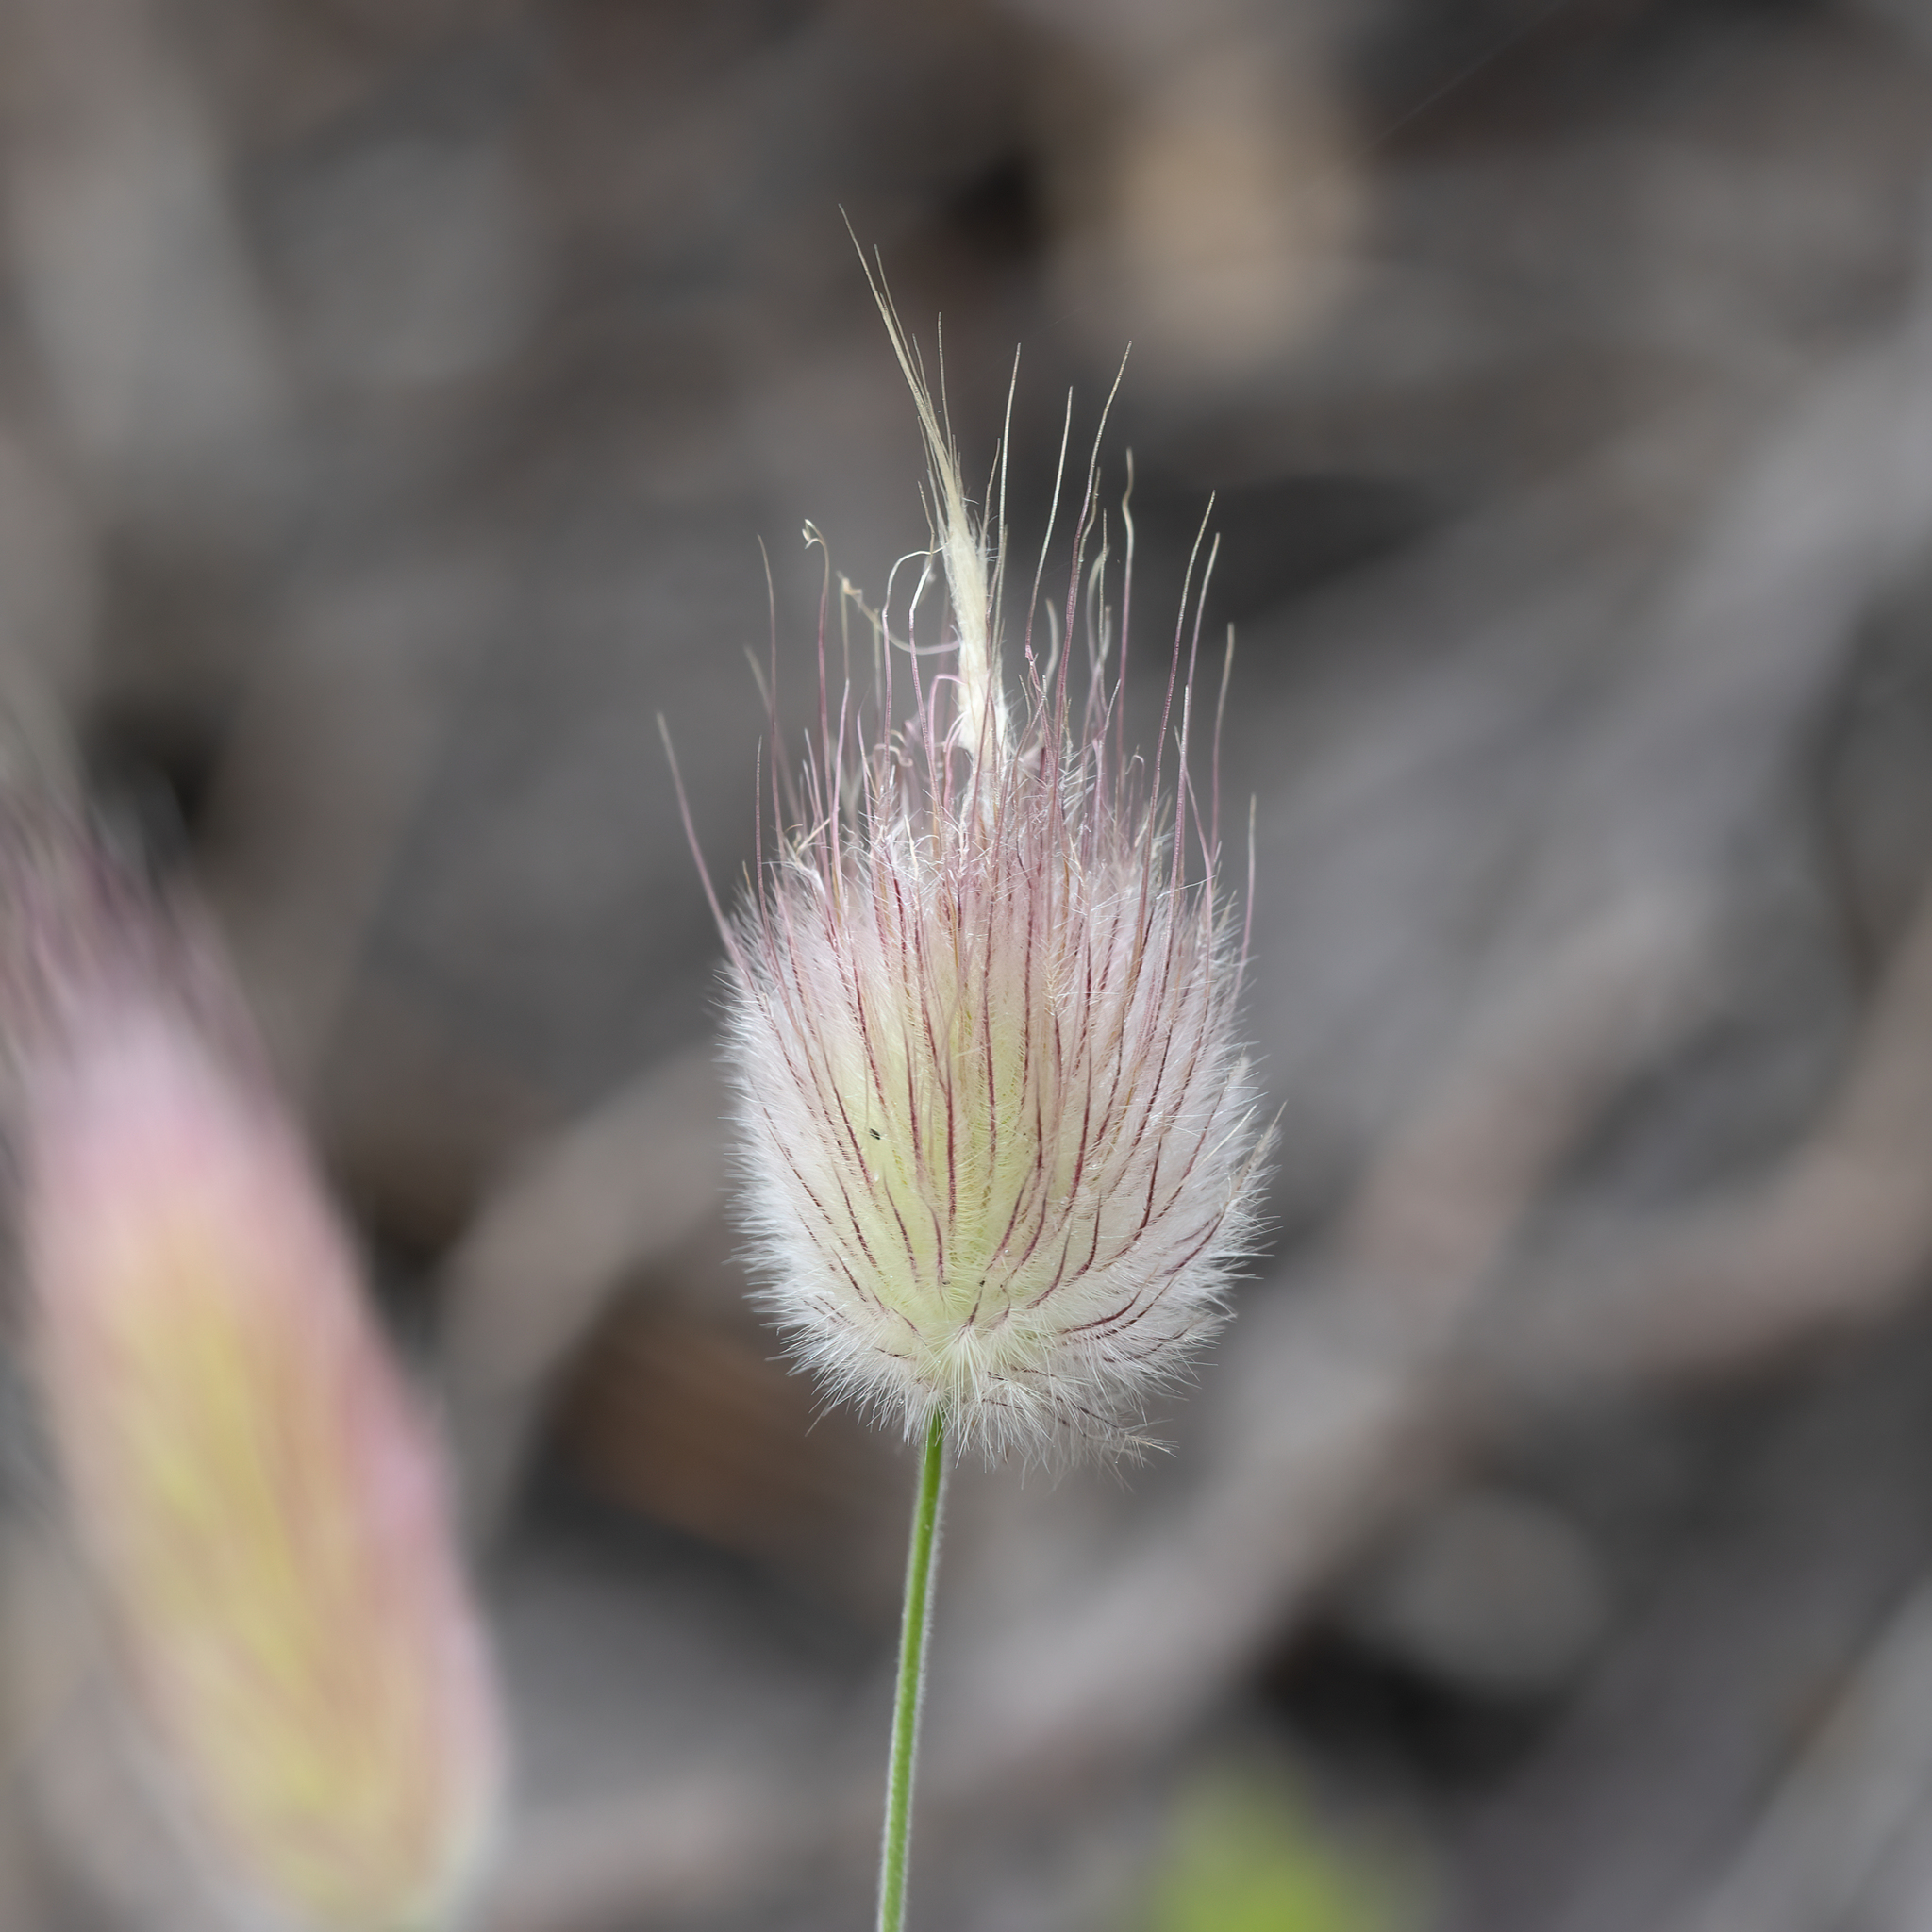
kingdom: Plantae
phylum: Tracheophyta
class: Liliopsida
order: Poales
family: Poaceae
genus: Lagurus
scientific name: Lagurus ovatus
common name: Hare's-tail
